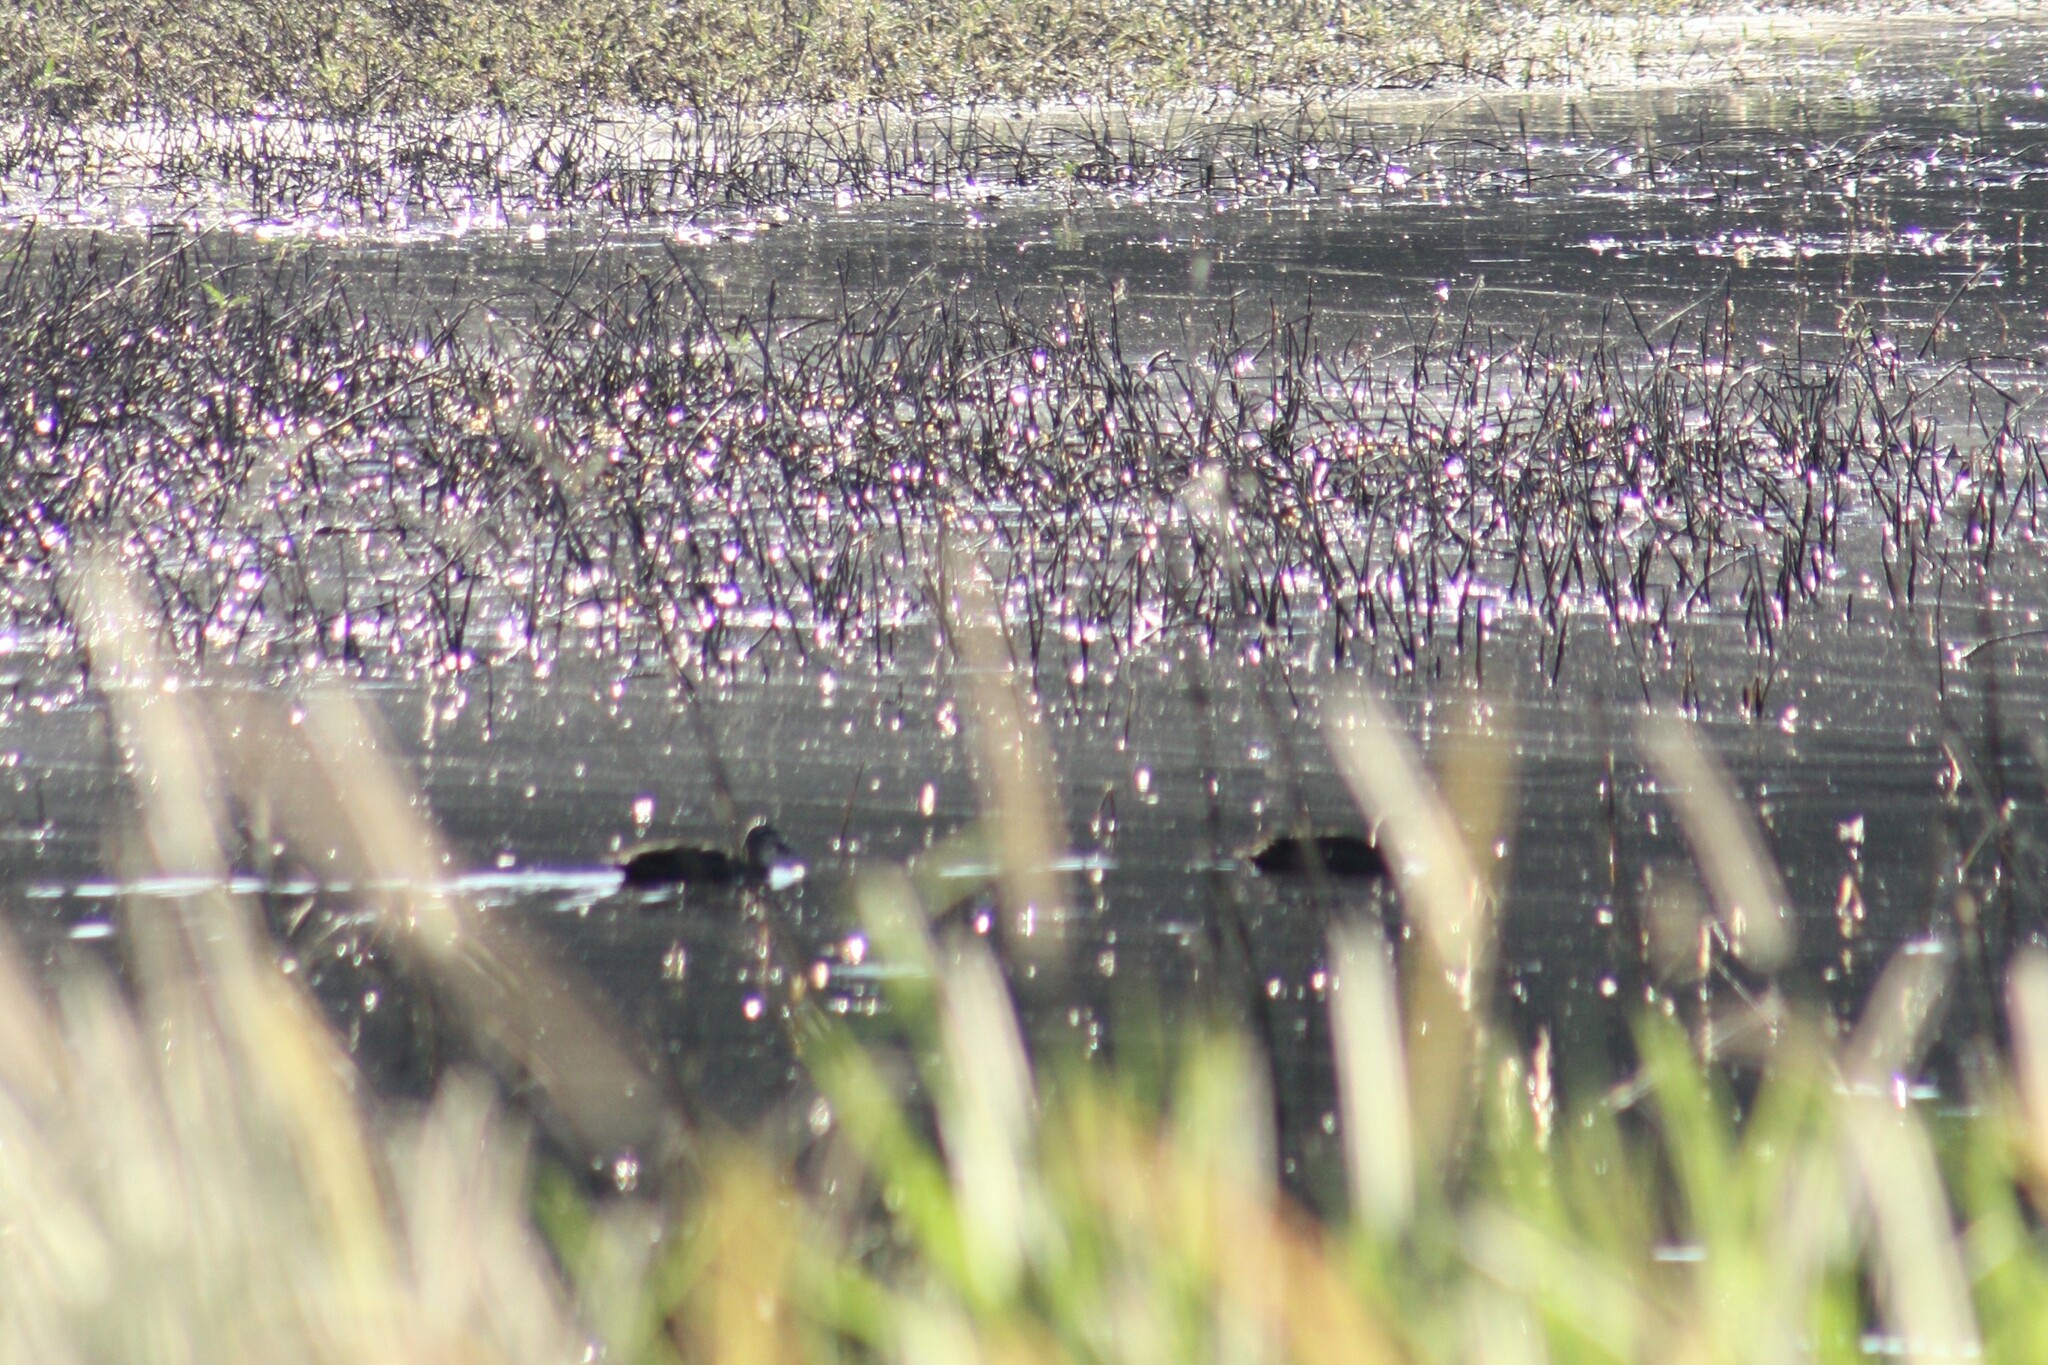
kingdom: Animalia
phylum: Chordata
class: Aves
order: Anseriformes
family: Anatidae
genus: Anas
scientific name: Anas superciliosa
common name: Pacific black duck
